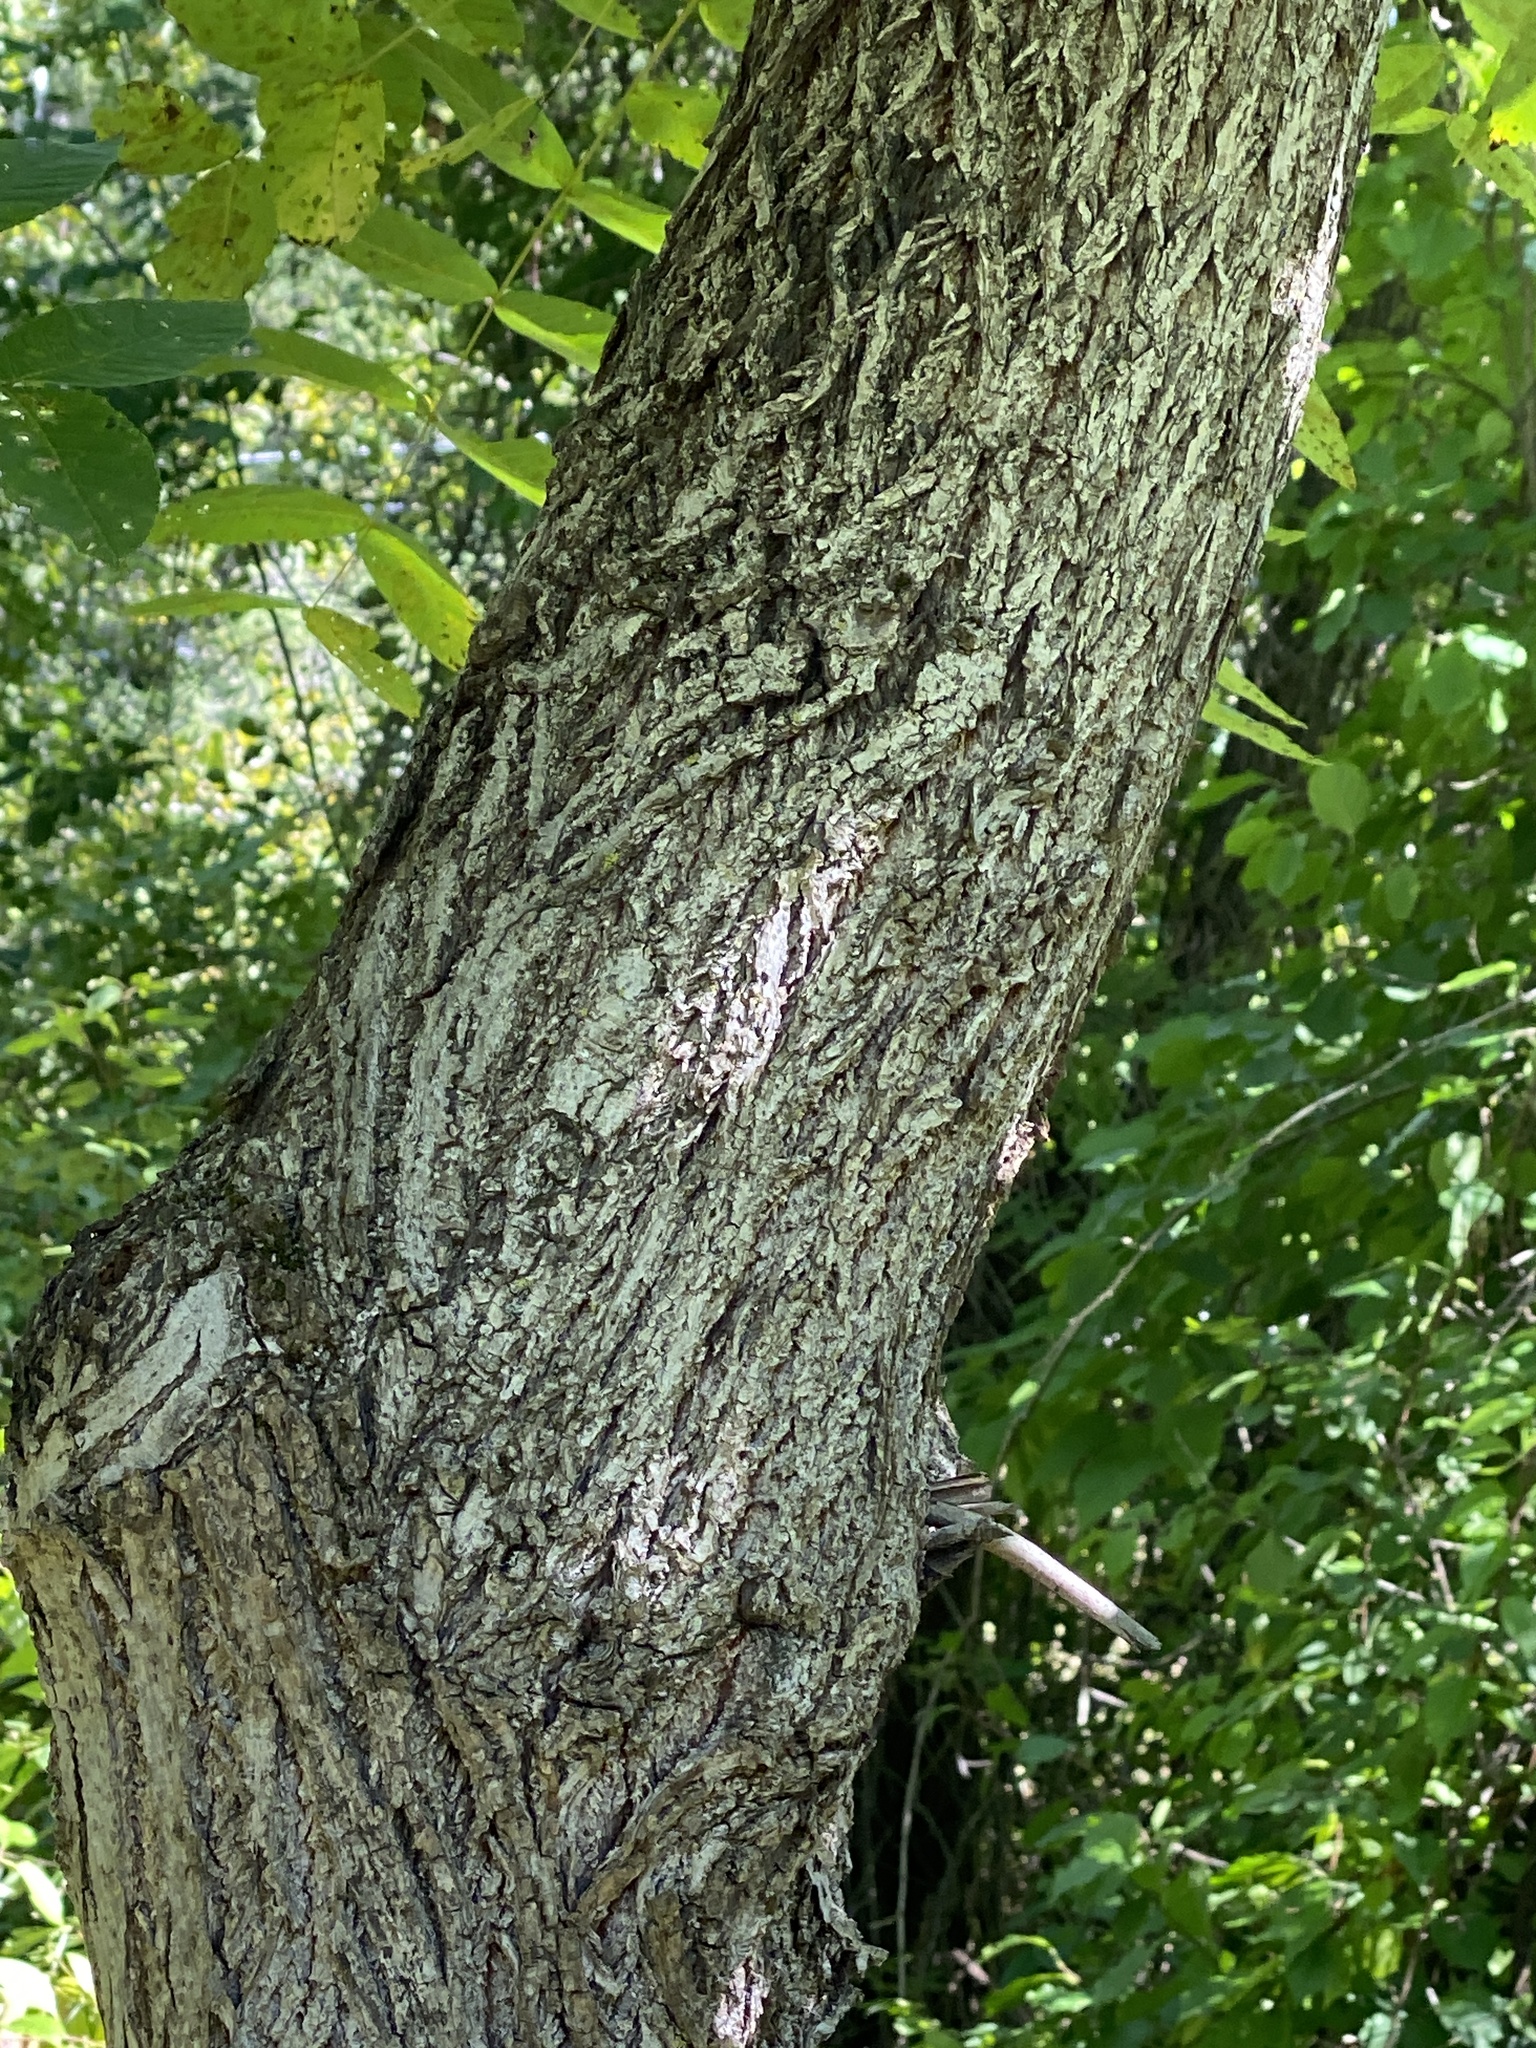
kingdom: Plantae
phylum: Tracheophyta
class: Magnoliopsida
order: Fagales
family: Juglandaceae
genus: Juglans
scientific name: Juglans nigra
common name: Black walnut
